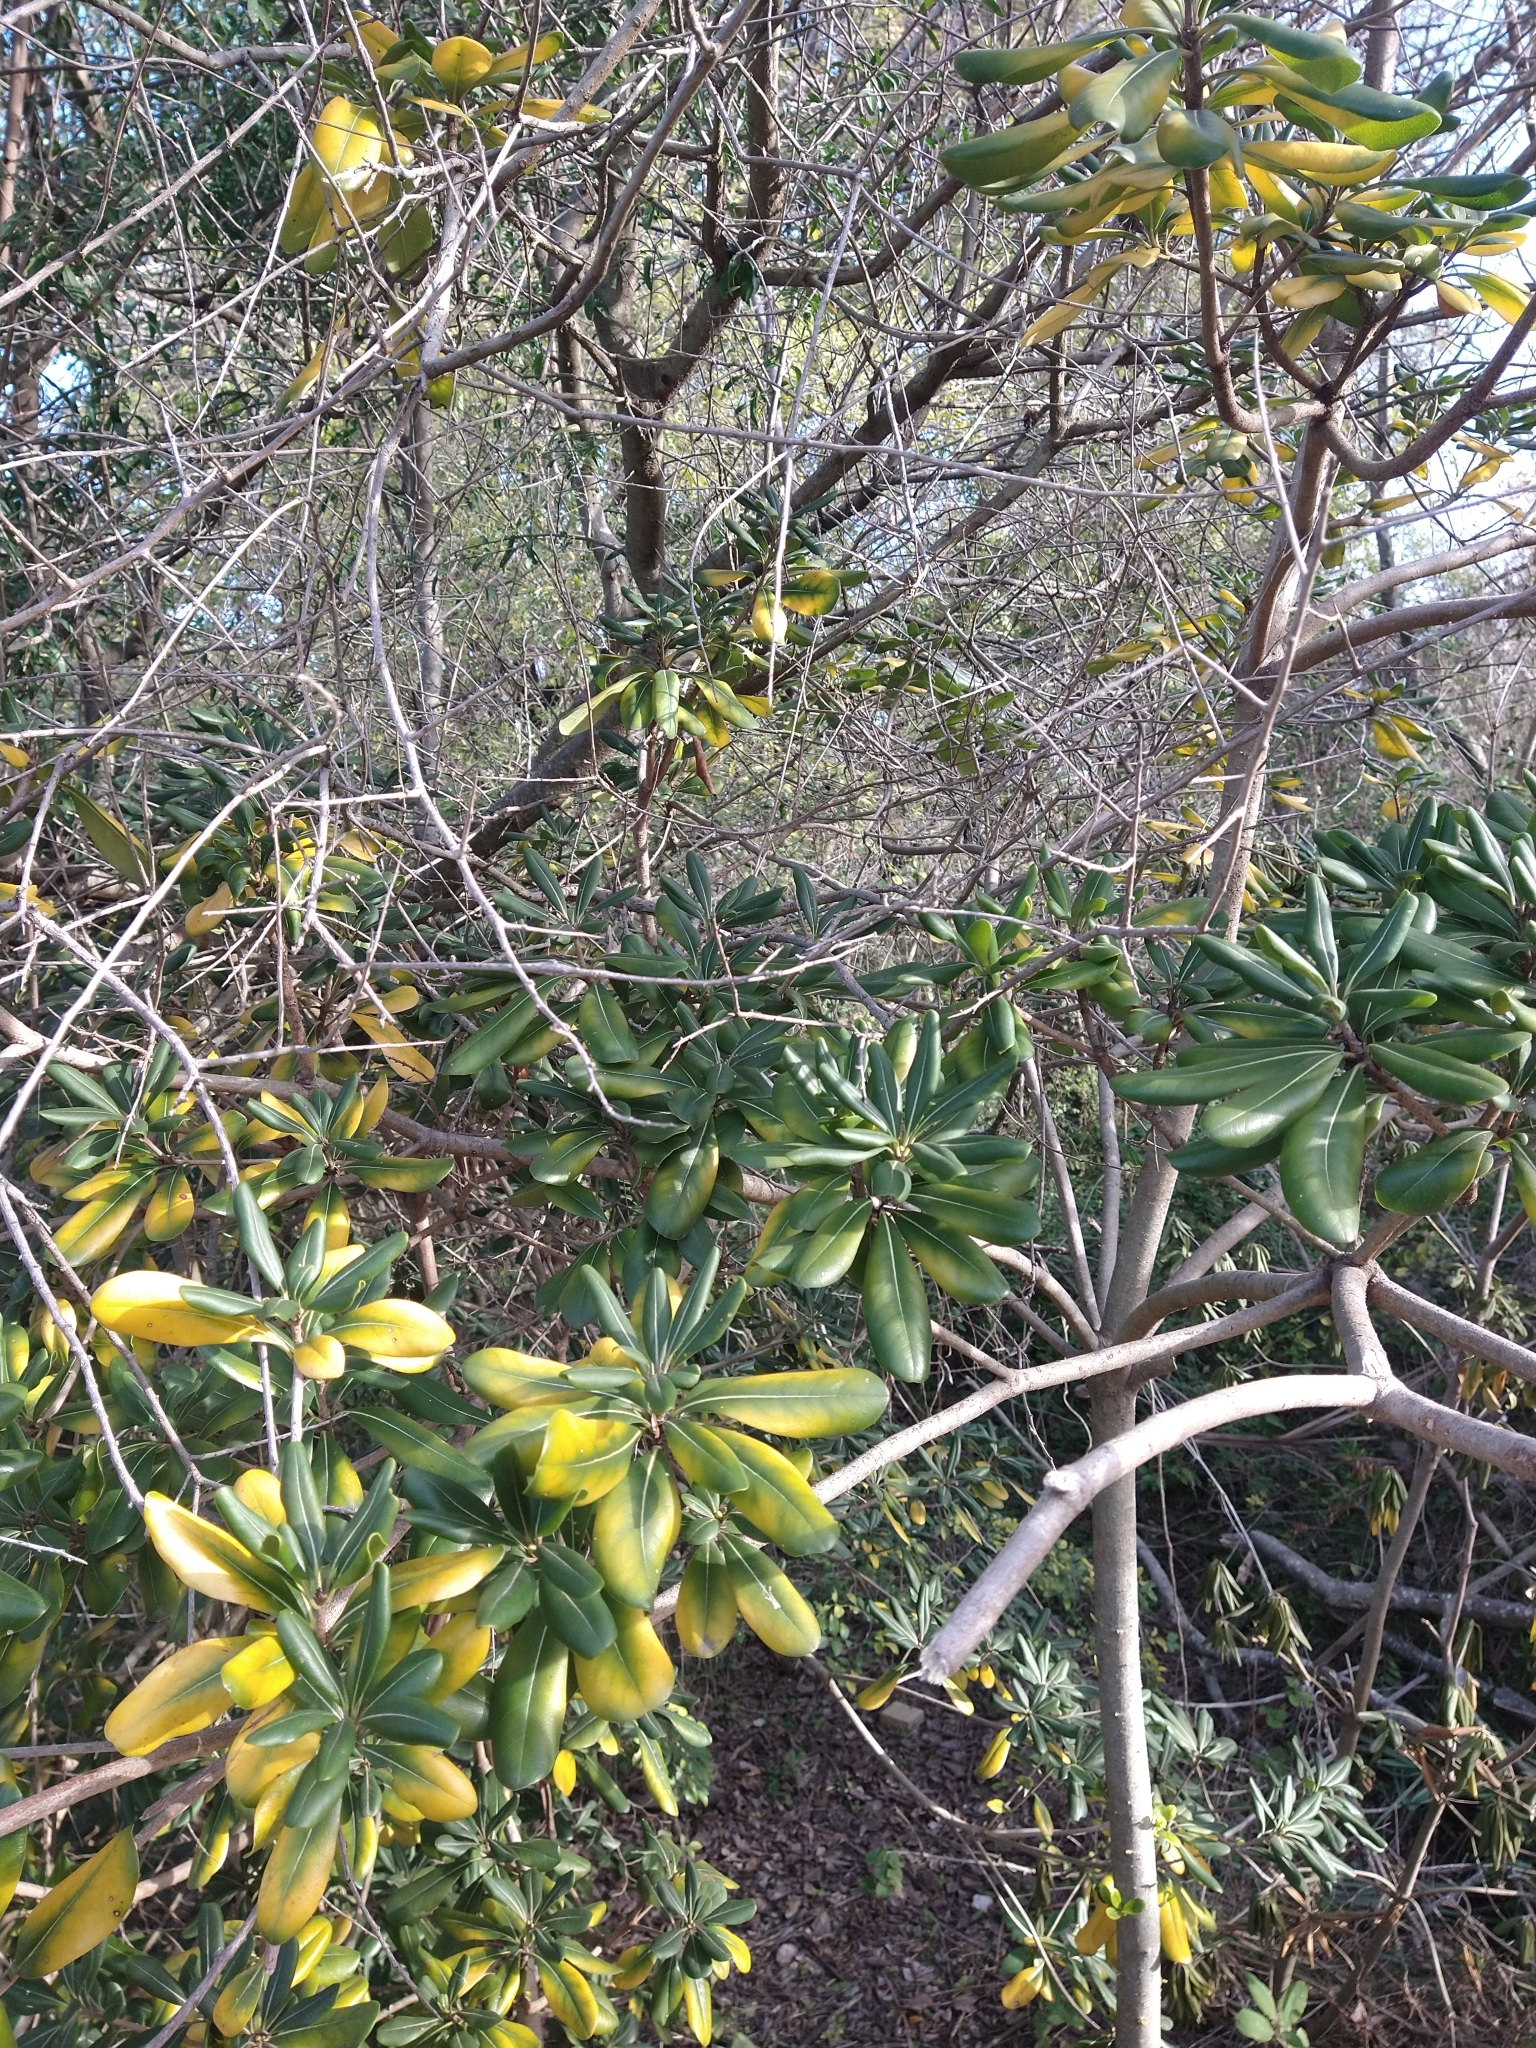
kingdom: Plantae
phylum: Tracheophyta
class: Magnoliopsida
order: Apiales
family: Pittosporaceae
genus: Pittosporum
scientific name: Pittosporum tobira
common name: Japanese cheesewood
